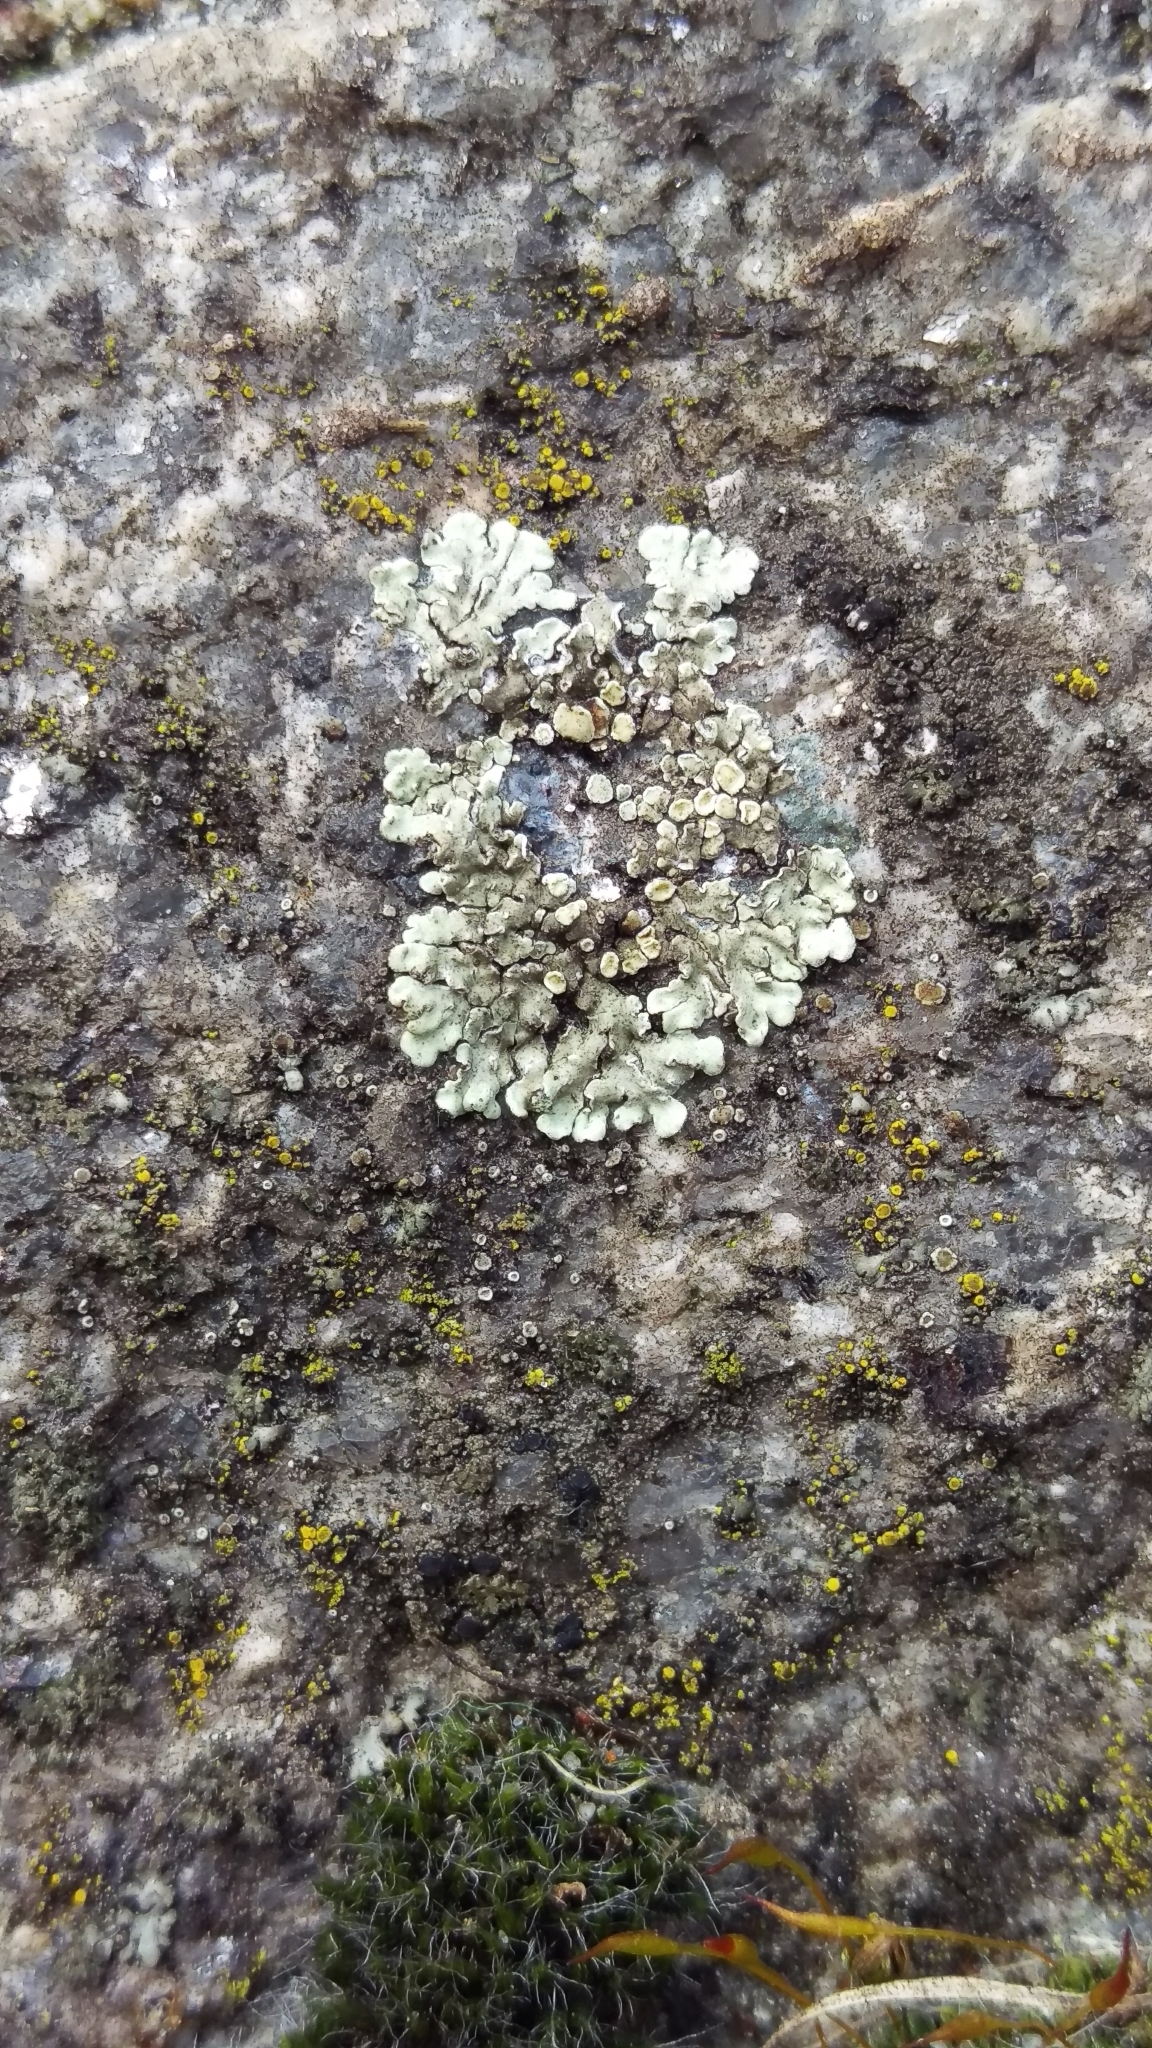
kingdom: Fungi
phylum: Ascomycota
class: Lecanoromycetes
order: Lecanorales
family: Lecanoraceae
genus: Protoparmeliopsis
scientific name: Protoparmeliopsis muralis
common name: Stonewall rim lichen
